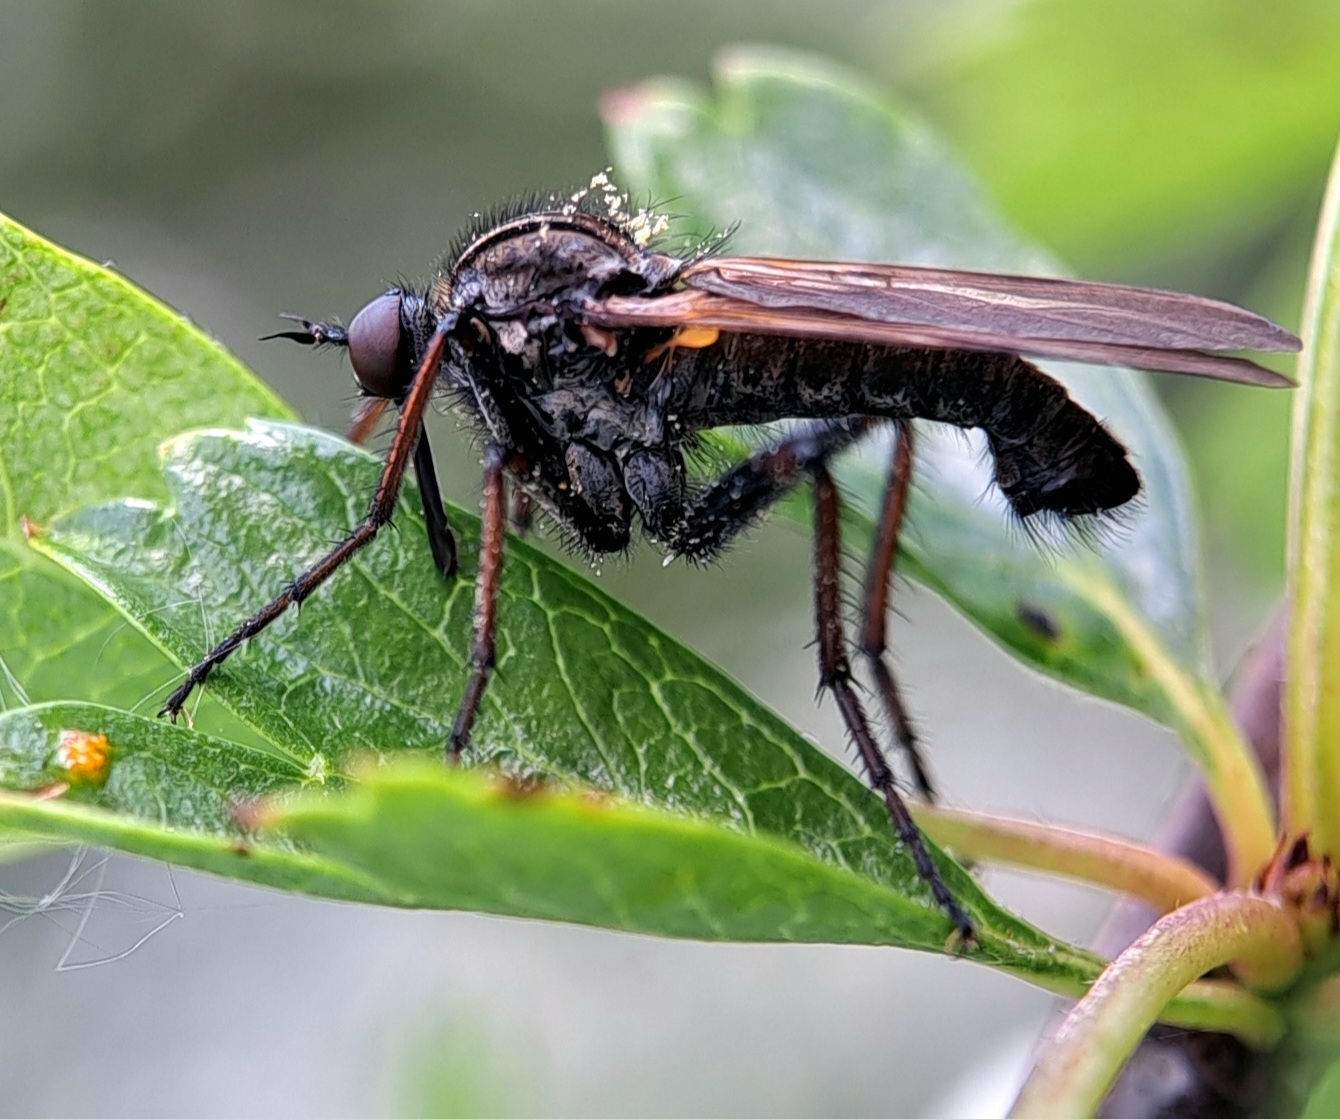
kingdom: Animalia
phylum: Arthropoda
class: Insecta
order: Diptera
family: Empididae
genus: Empis
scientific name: Empis tessellata
